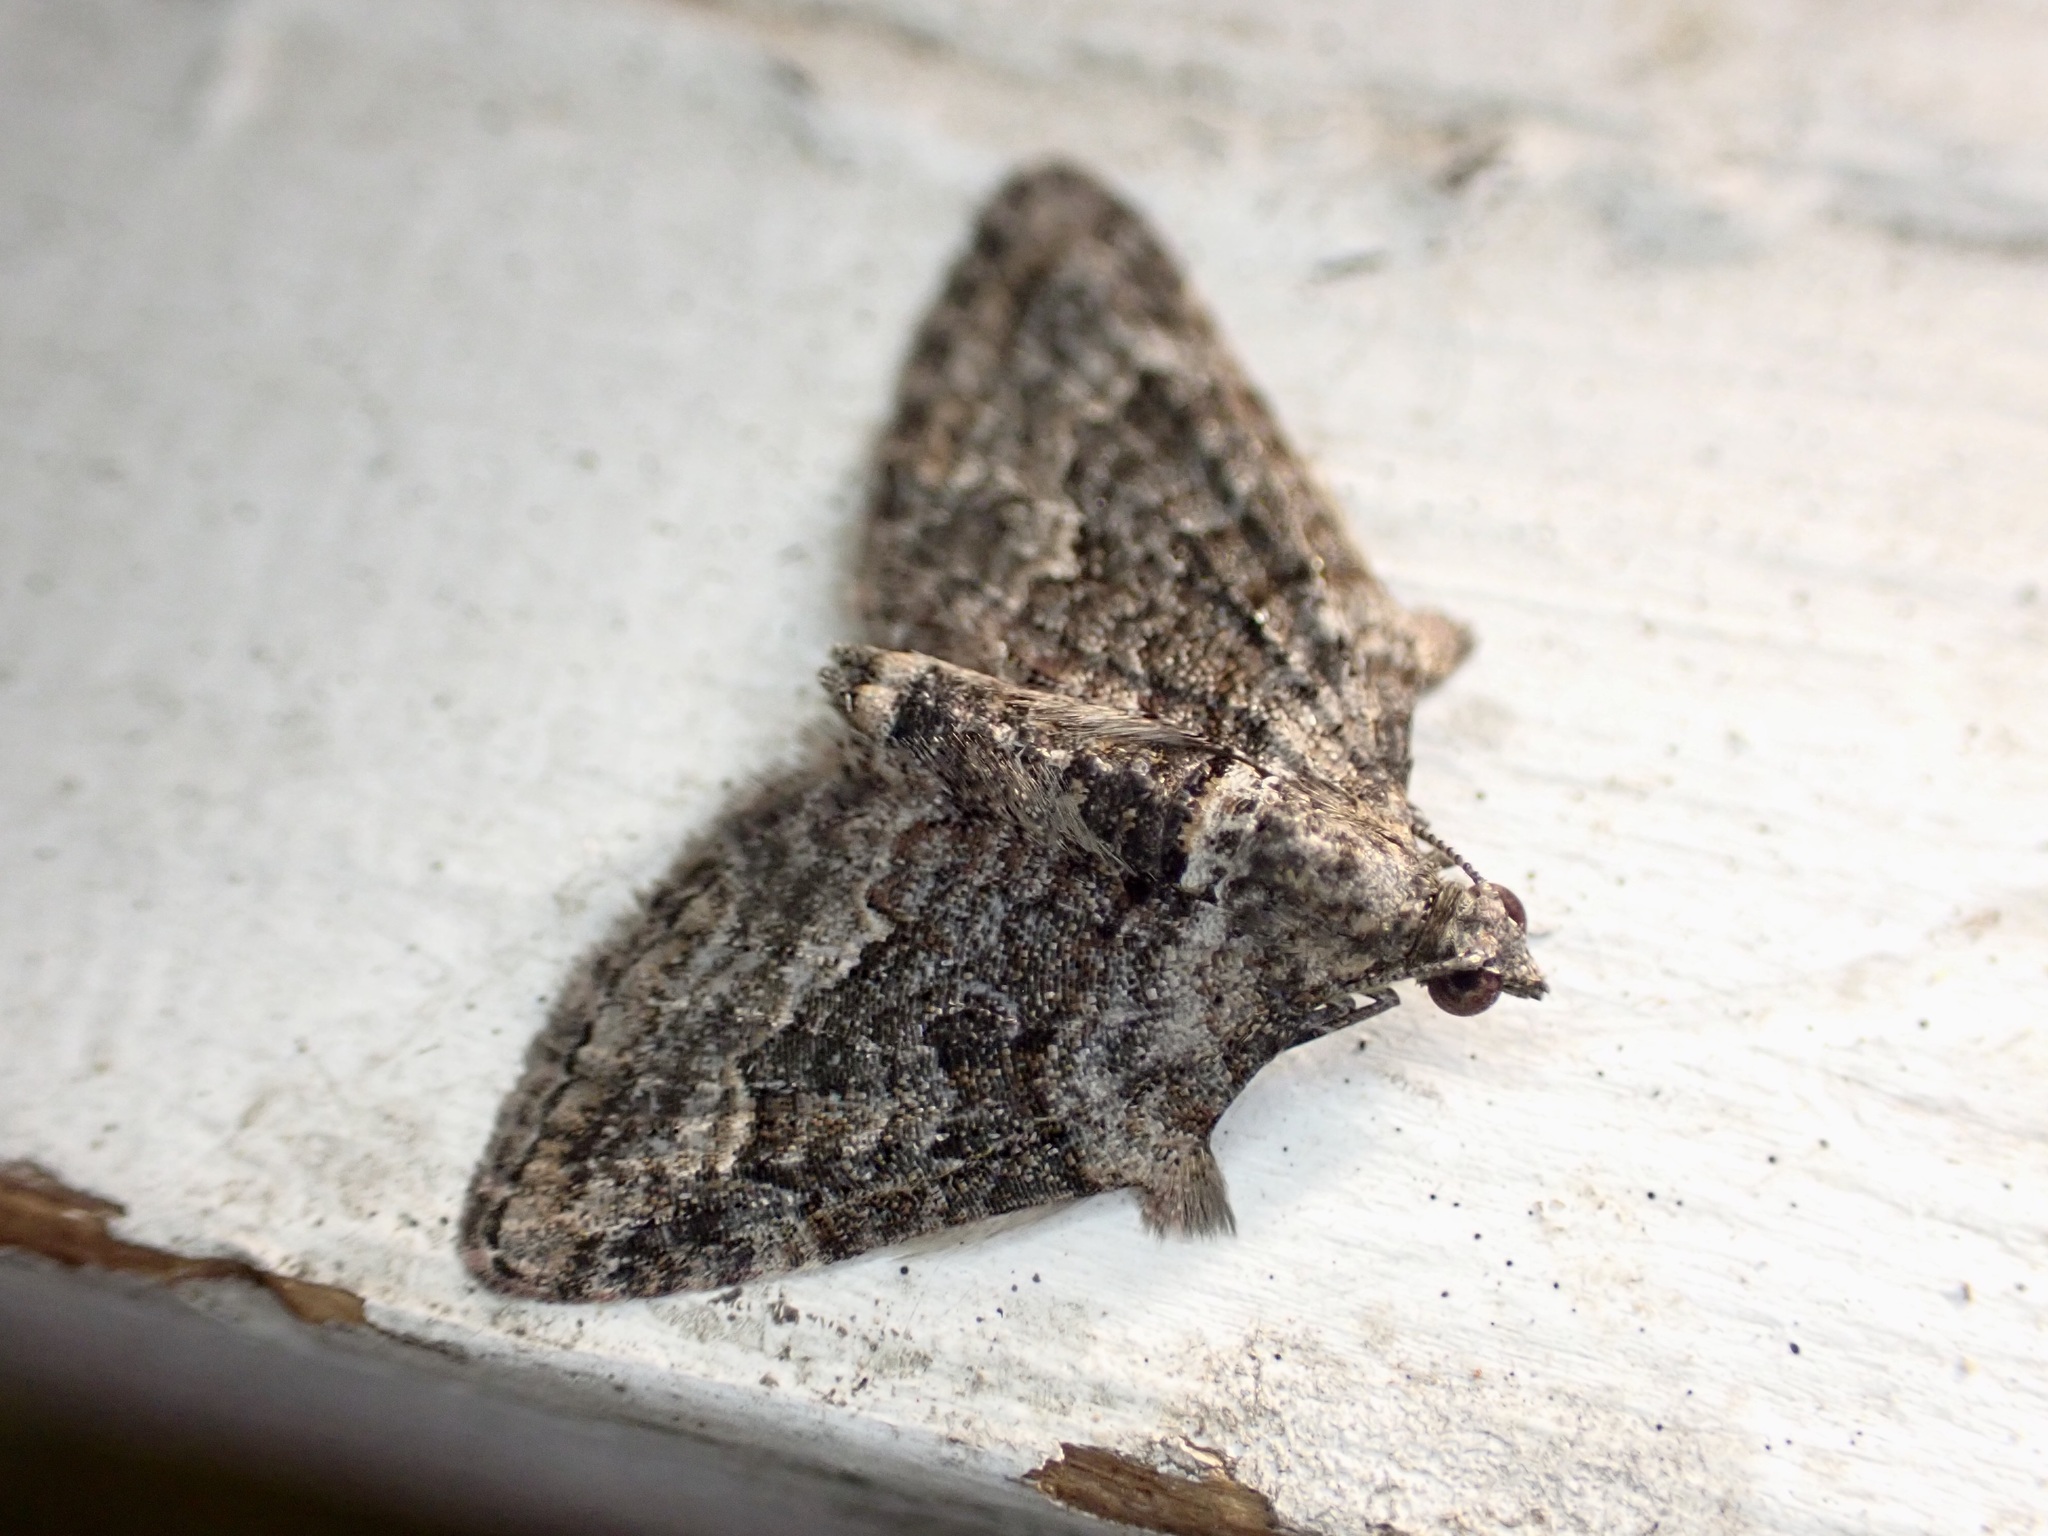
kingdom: Animalia
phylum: Arthropoda
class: Insecta
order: Lepidoptera
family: Geometridae
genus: Phrissogonus
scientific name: Phrissogonus laticostata
